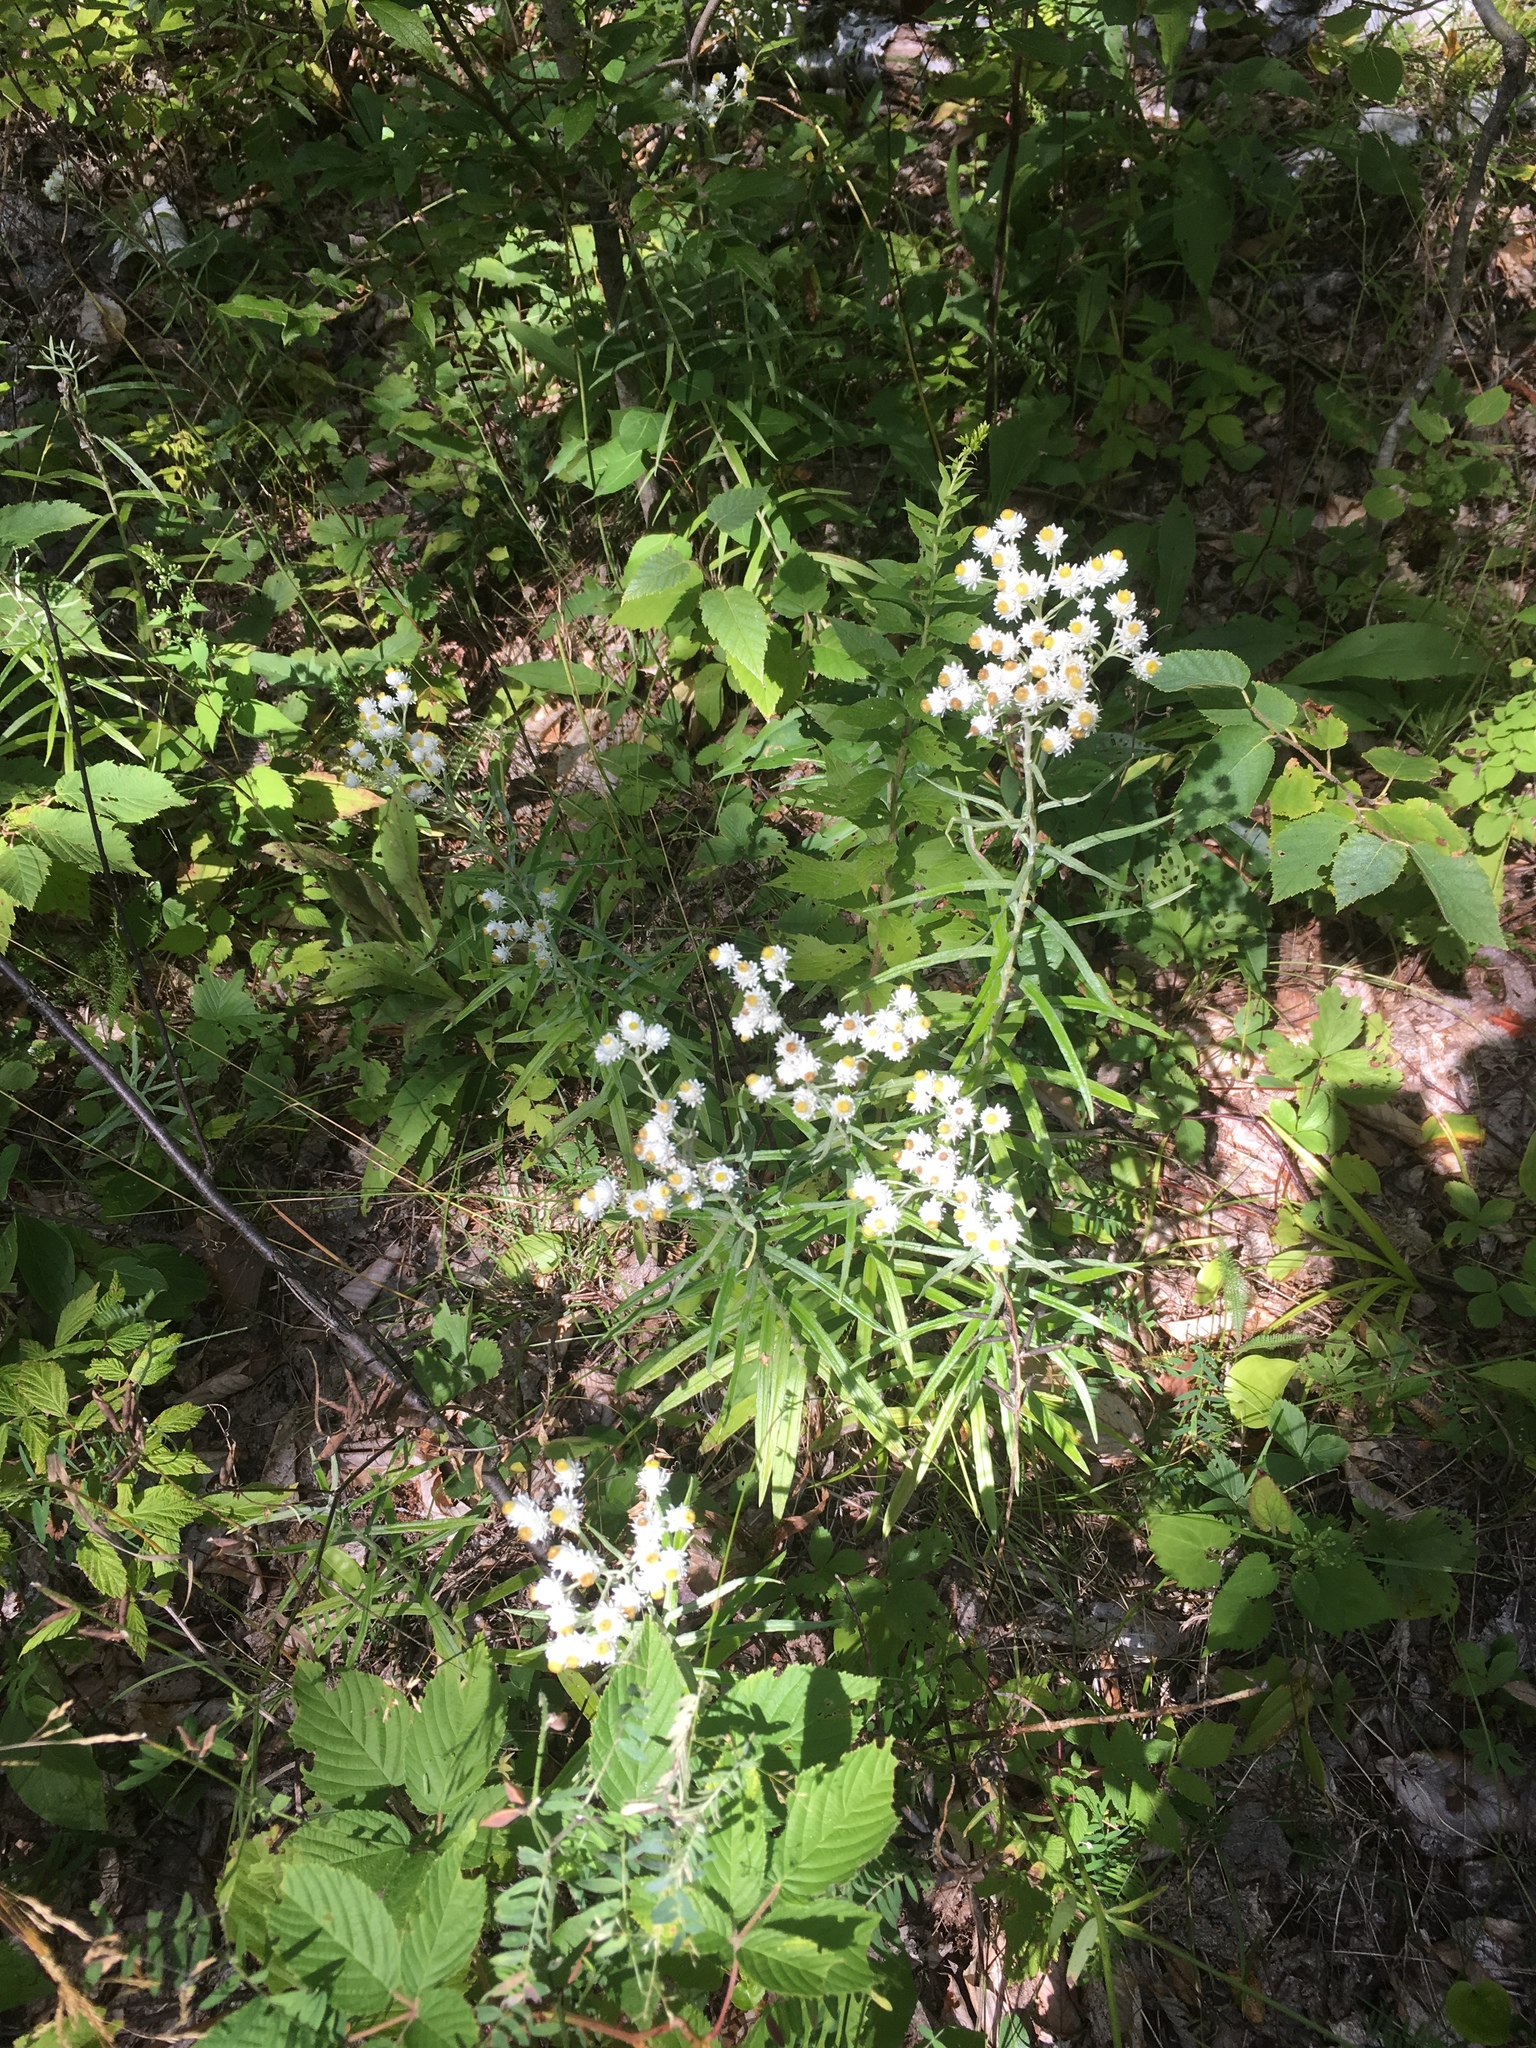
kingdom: Plantae
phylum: Tracheophyta
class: Magnoliopsida
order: Asterales
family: Asteraceae
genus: Anaphalis
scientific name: Anaphalis margaritacea
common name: Pearly everlasting
